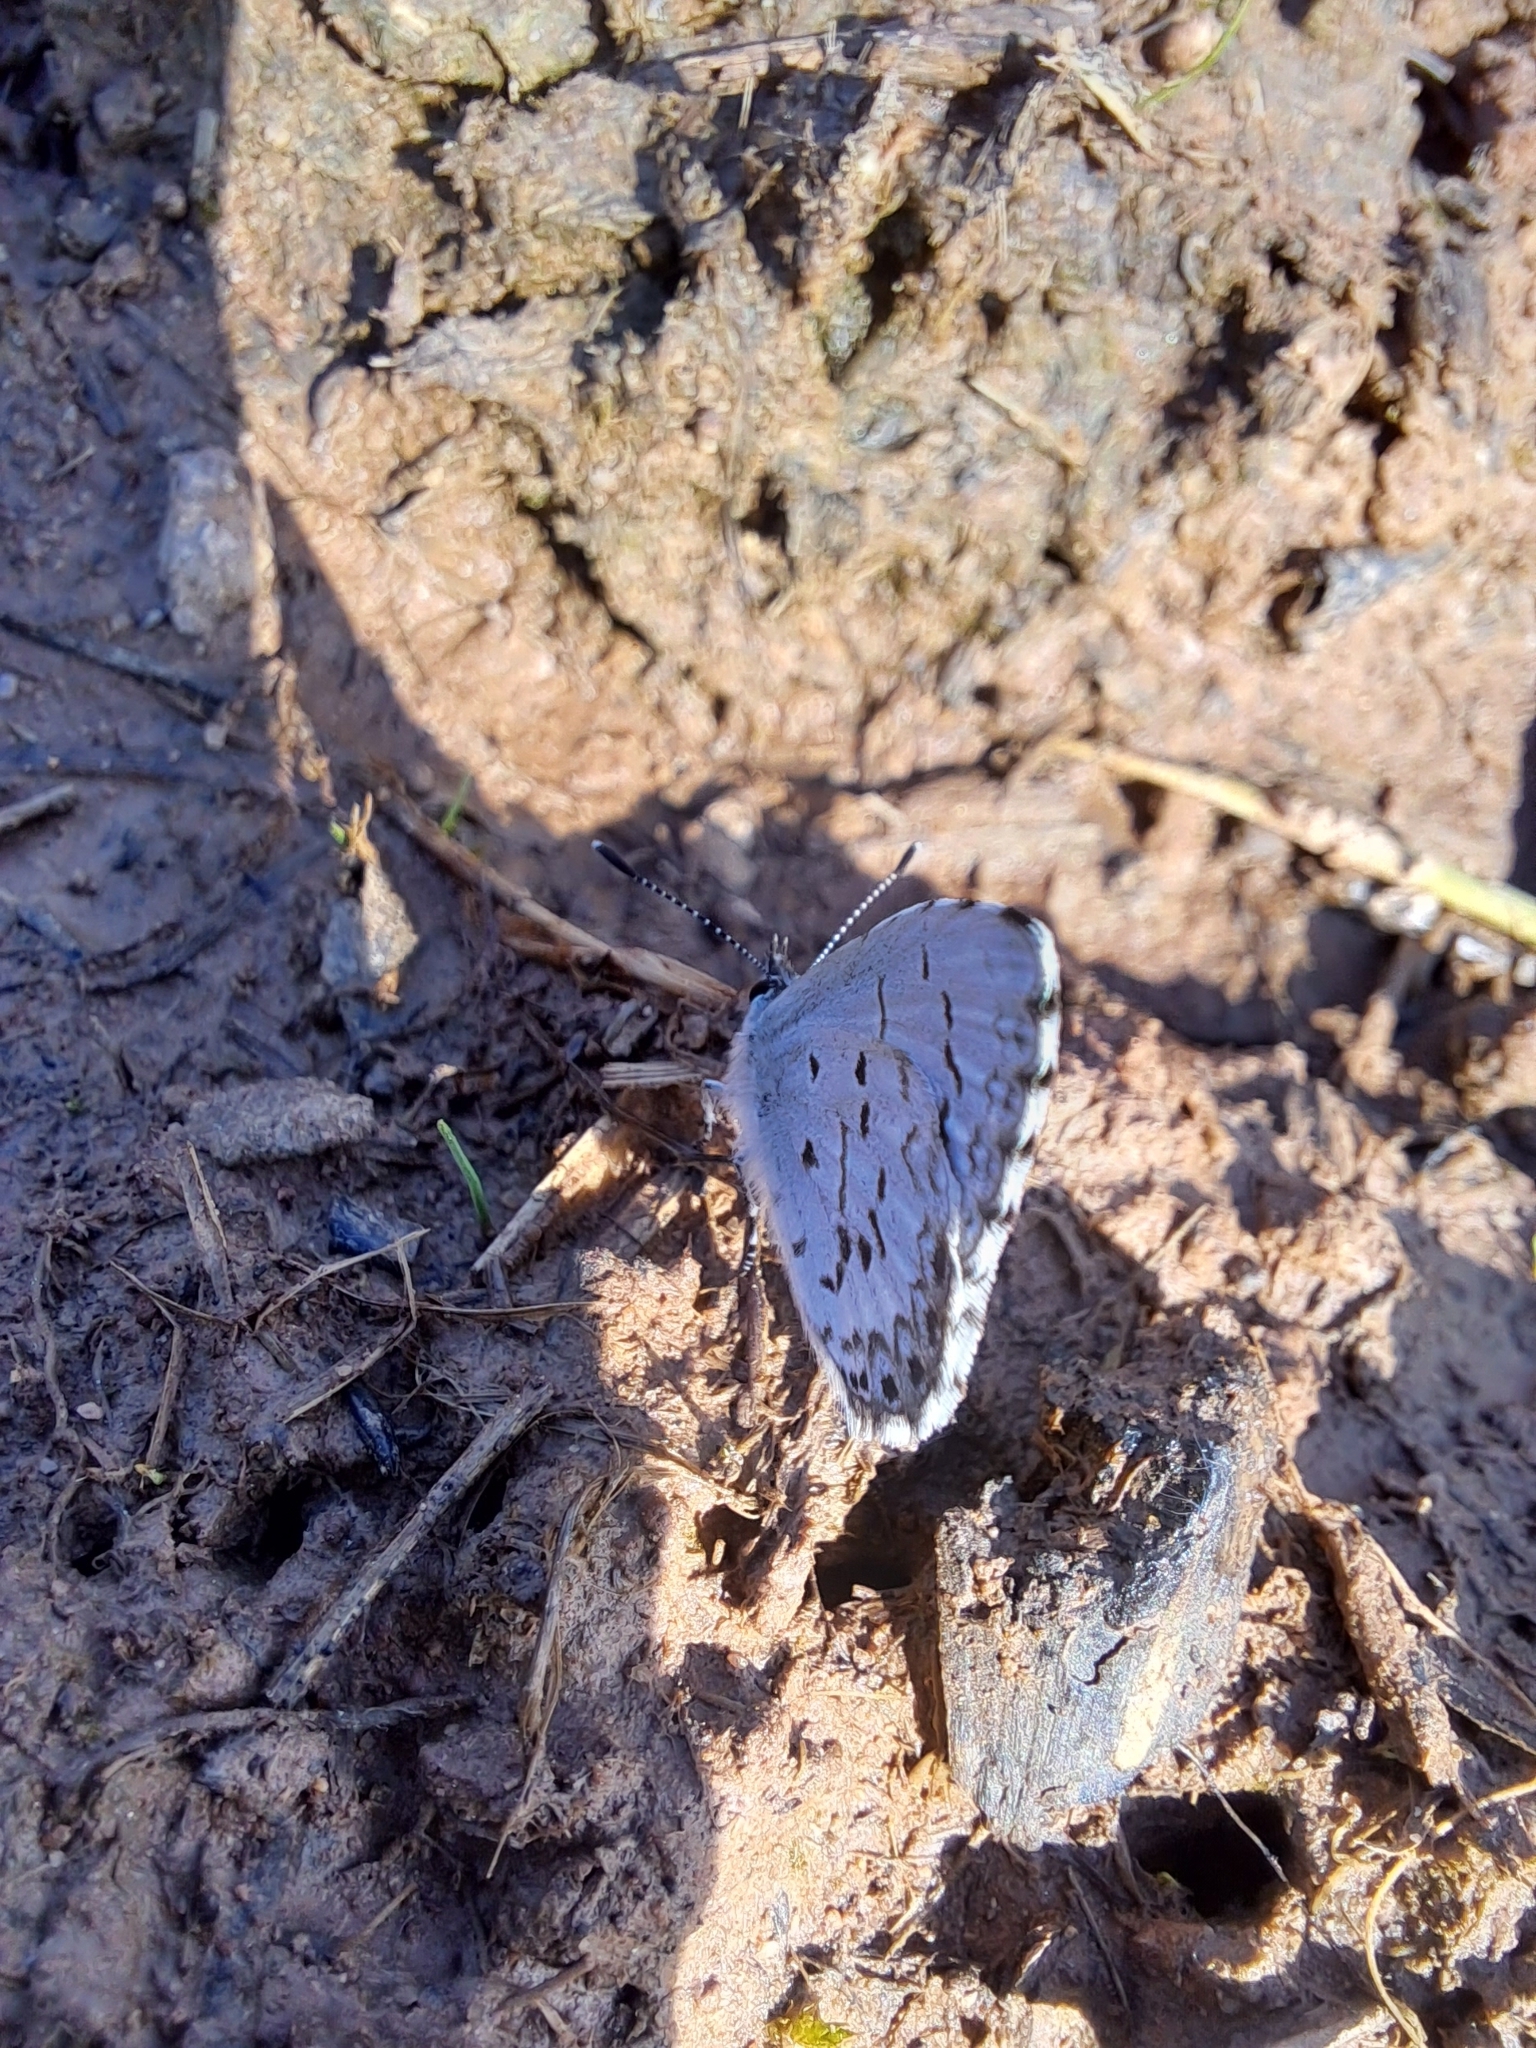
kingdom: Animalia
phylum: Arthropoda
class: Insecta
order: Lepidoptera
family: Lycaenidae
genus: Celastrina
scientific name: Celastrina lucia
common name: Lucia azure
